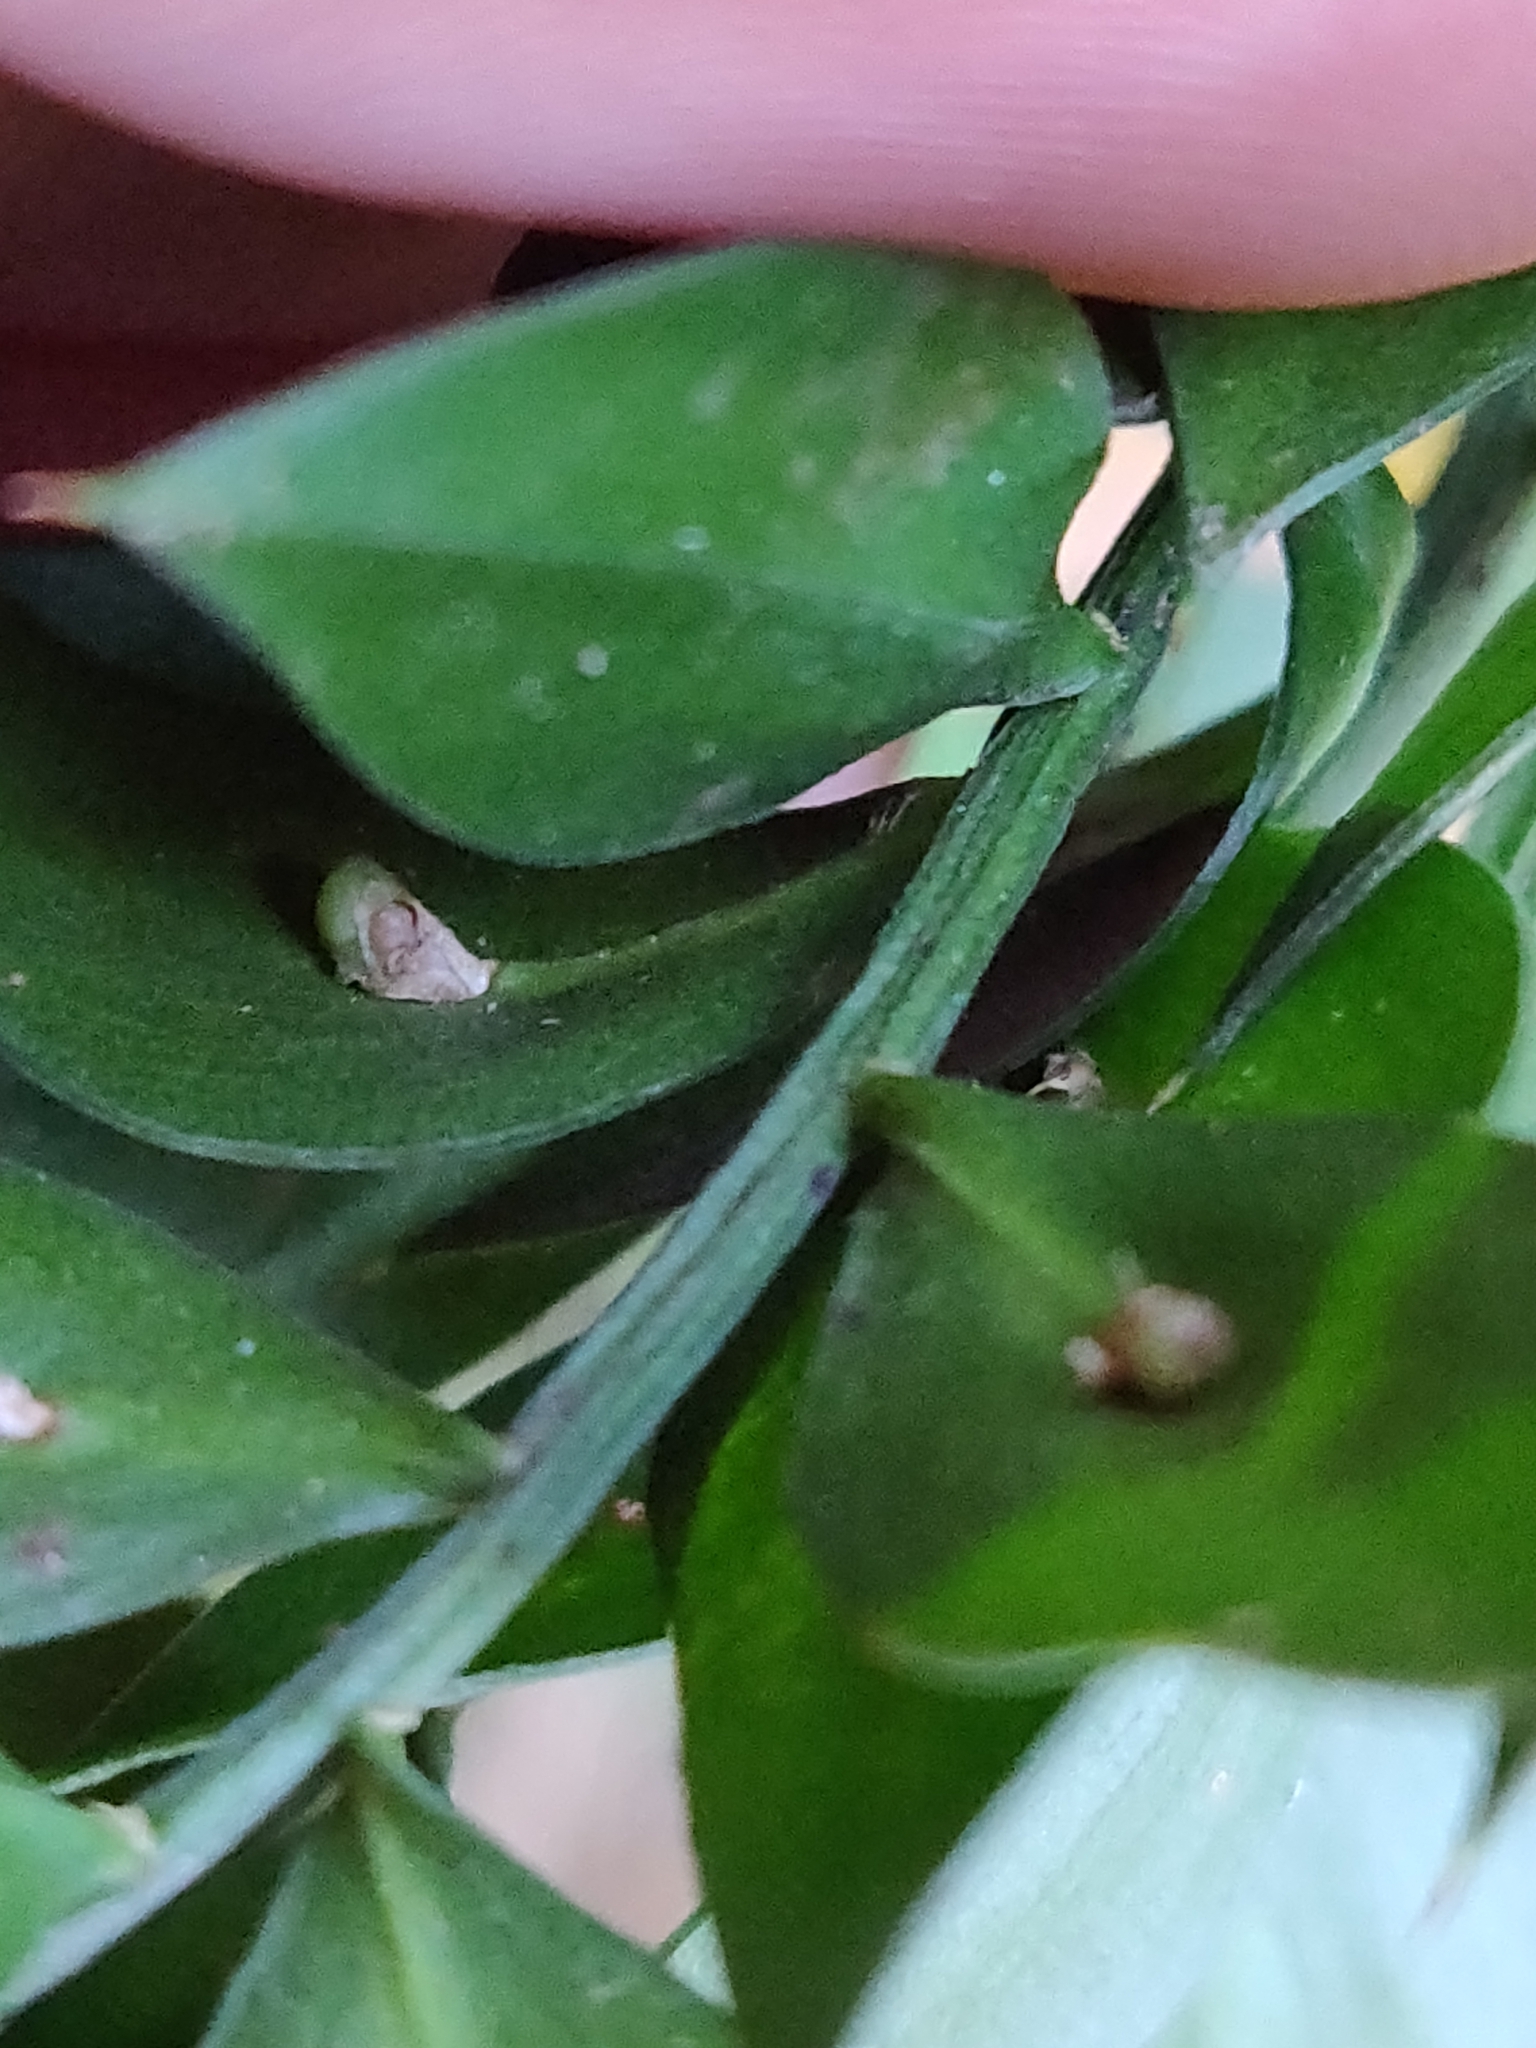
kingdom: Plantae
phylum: Tracheophyta
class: Liliopsida
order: Asparagales
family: Asparagaceae
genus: Ruscus
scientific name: Ruscus aculeatus
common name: Butcher's-broom
